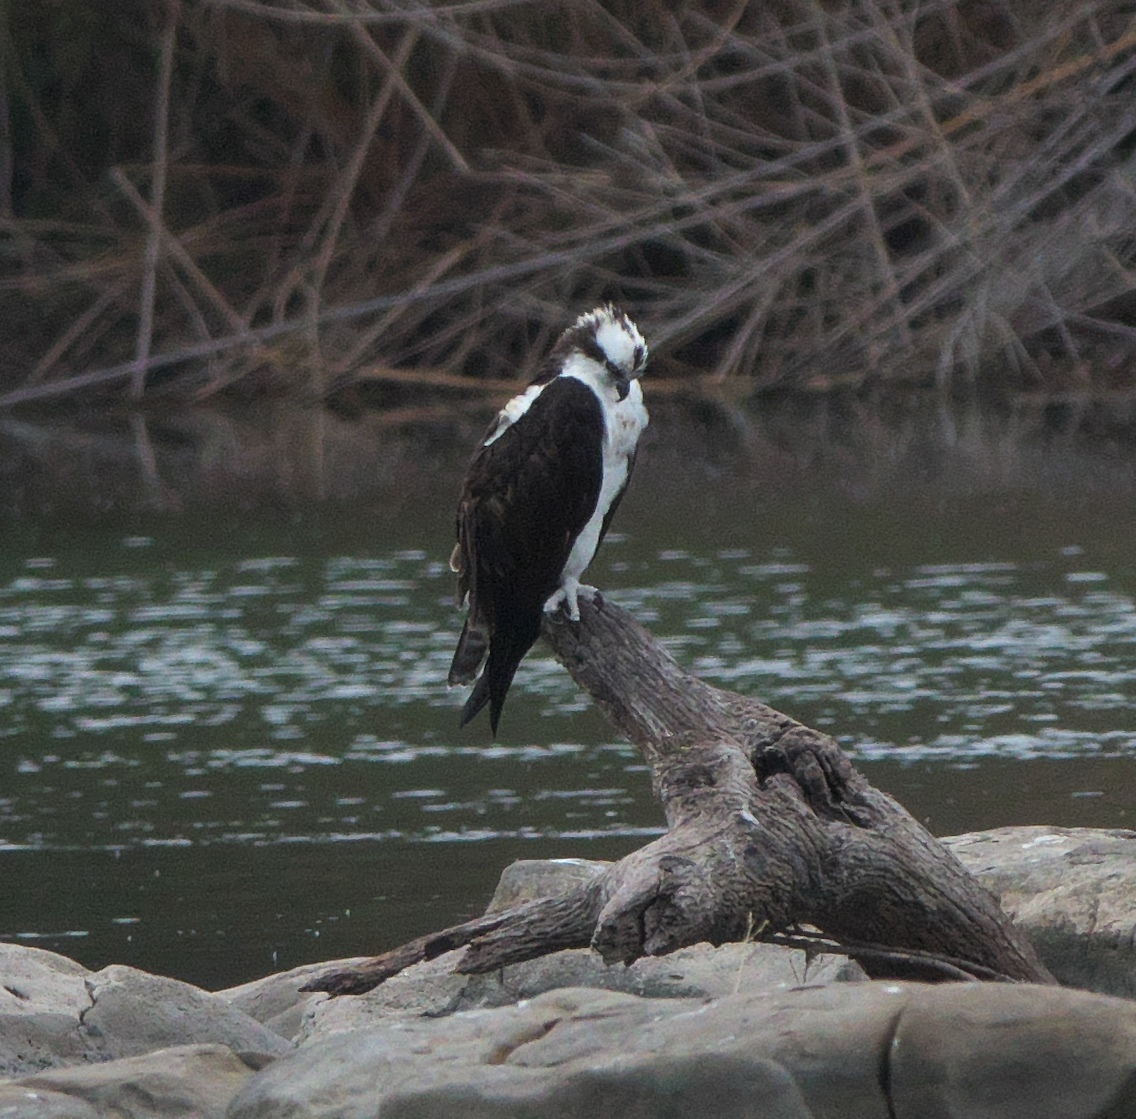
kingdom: Animalia
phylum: Chordata
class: Aves
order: Accipitriformes
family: Pandionidae
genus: Pandion
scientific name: Pandion haliaetus
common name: Osprey
